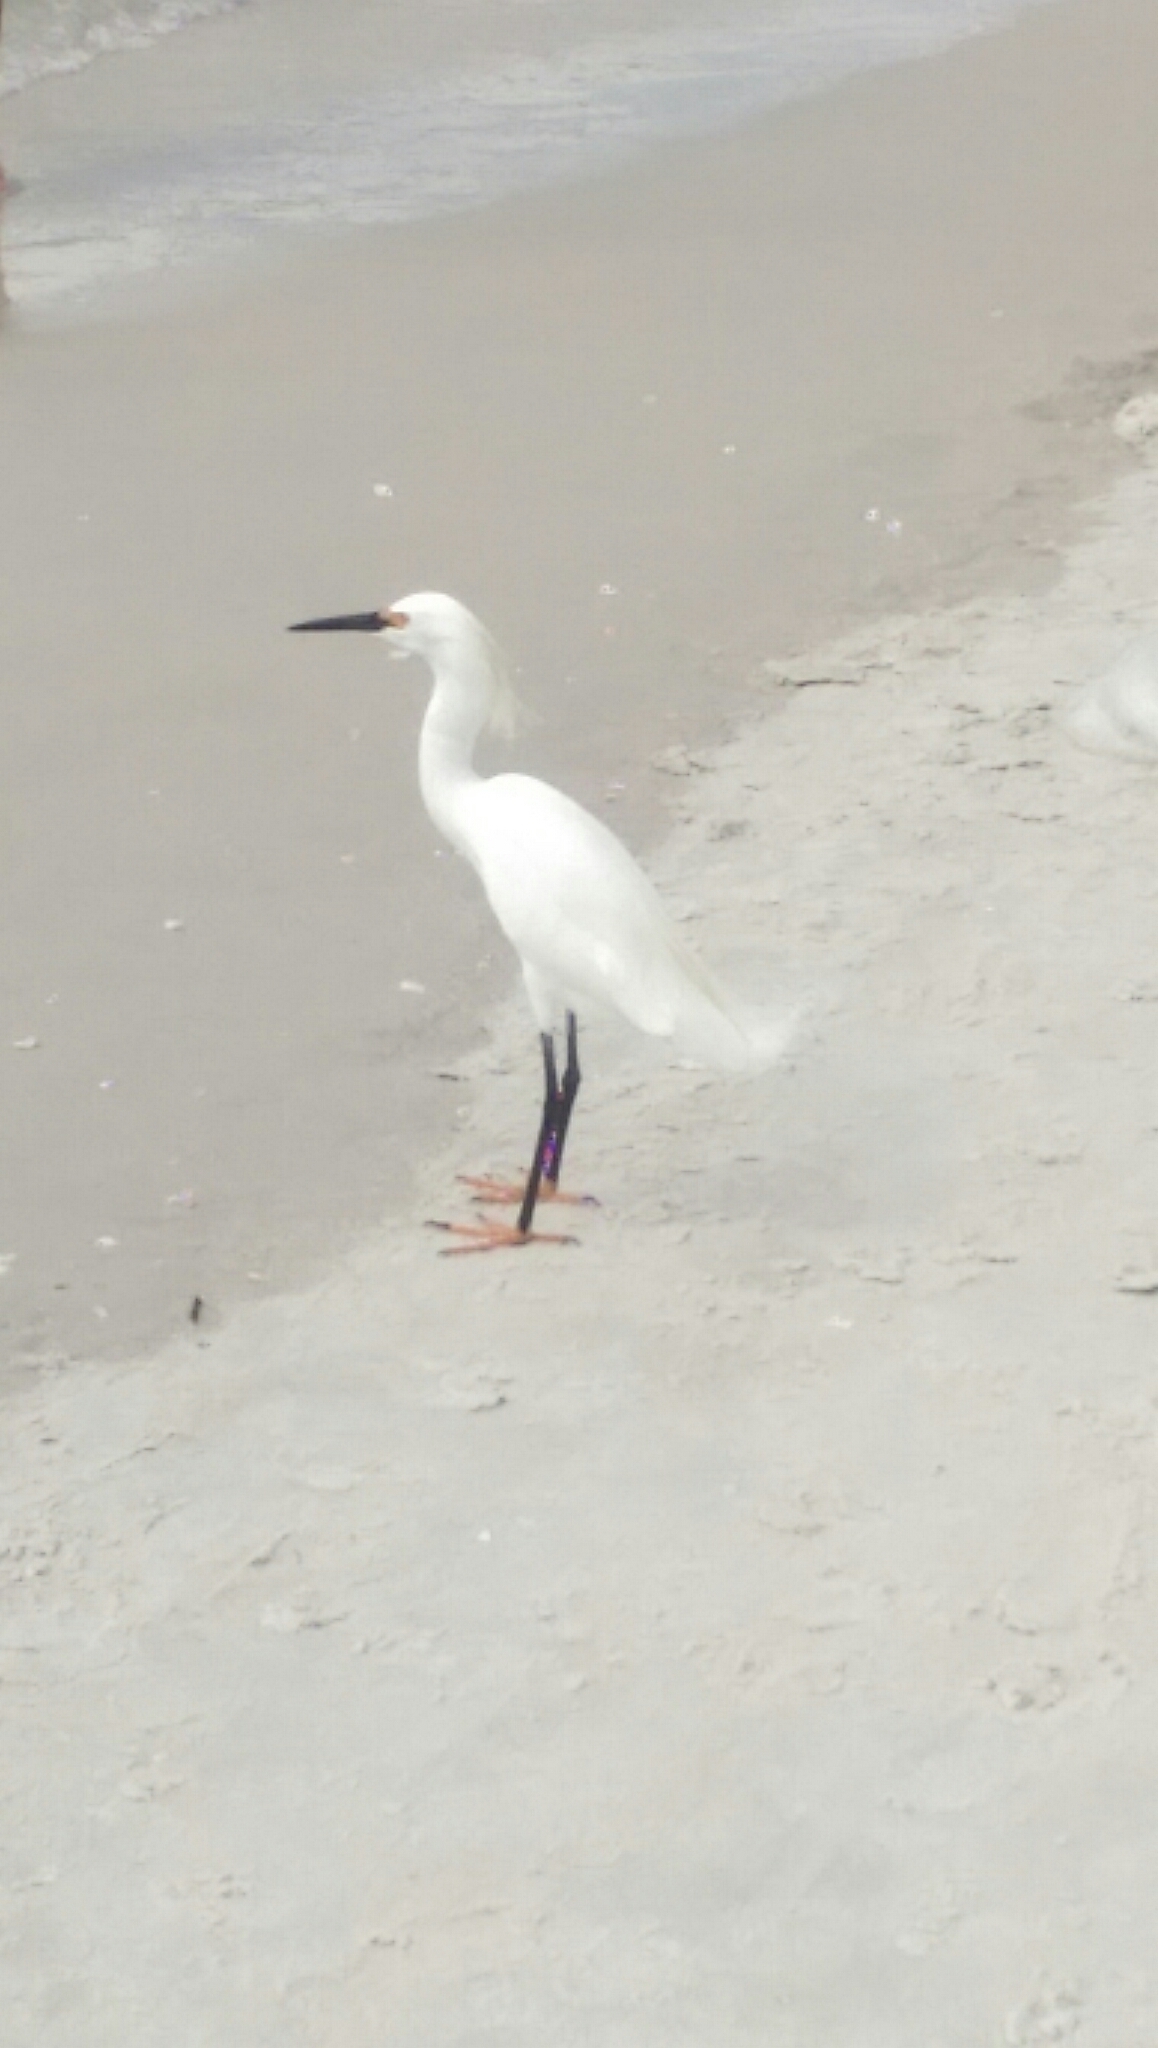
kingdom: Animalia
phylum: Chordata
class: Aves
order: Pelecaniformes
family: Ardeidae
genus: Egretta
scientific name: Egretta thula
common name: Snowy egret
